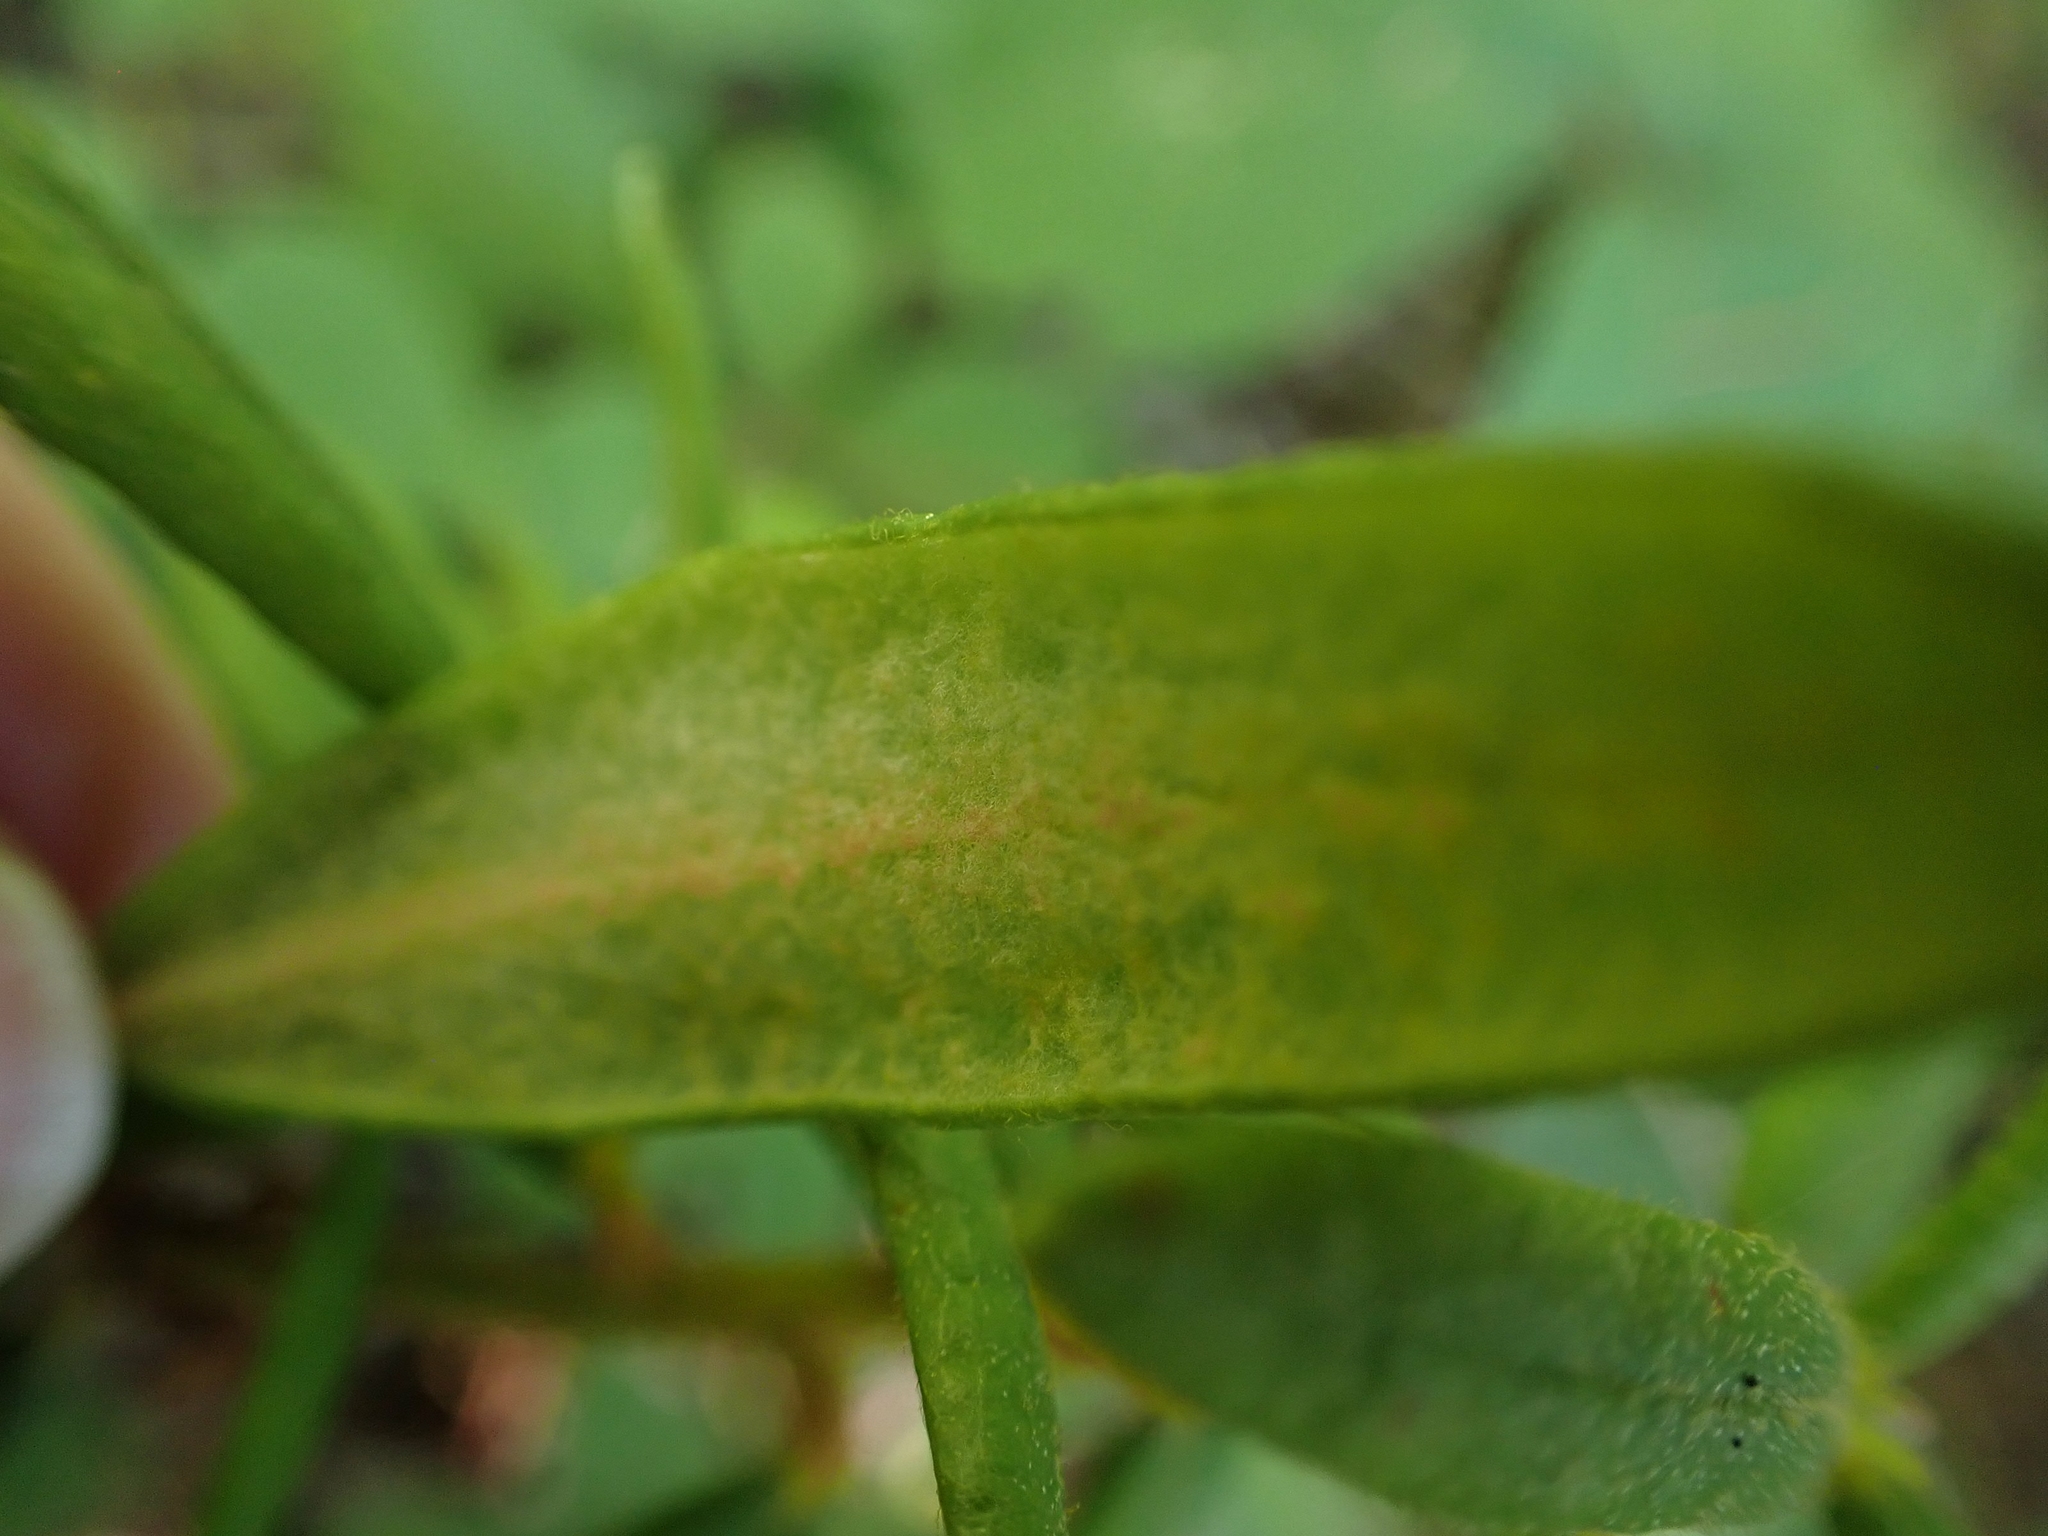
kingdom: Plantae
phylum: Tracheophyta
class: Magnoliopsida
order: Ericales
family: Ericaceae
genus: Rhododendron
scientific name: Rhododendron groenlandicum
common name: Bog labrador tea
